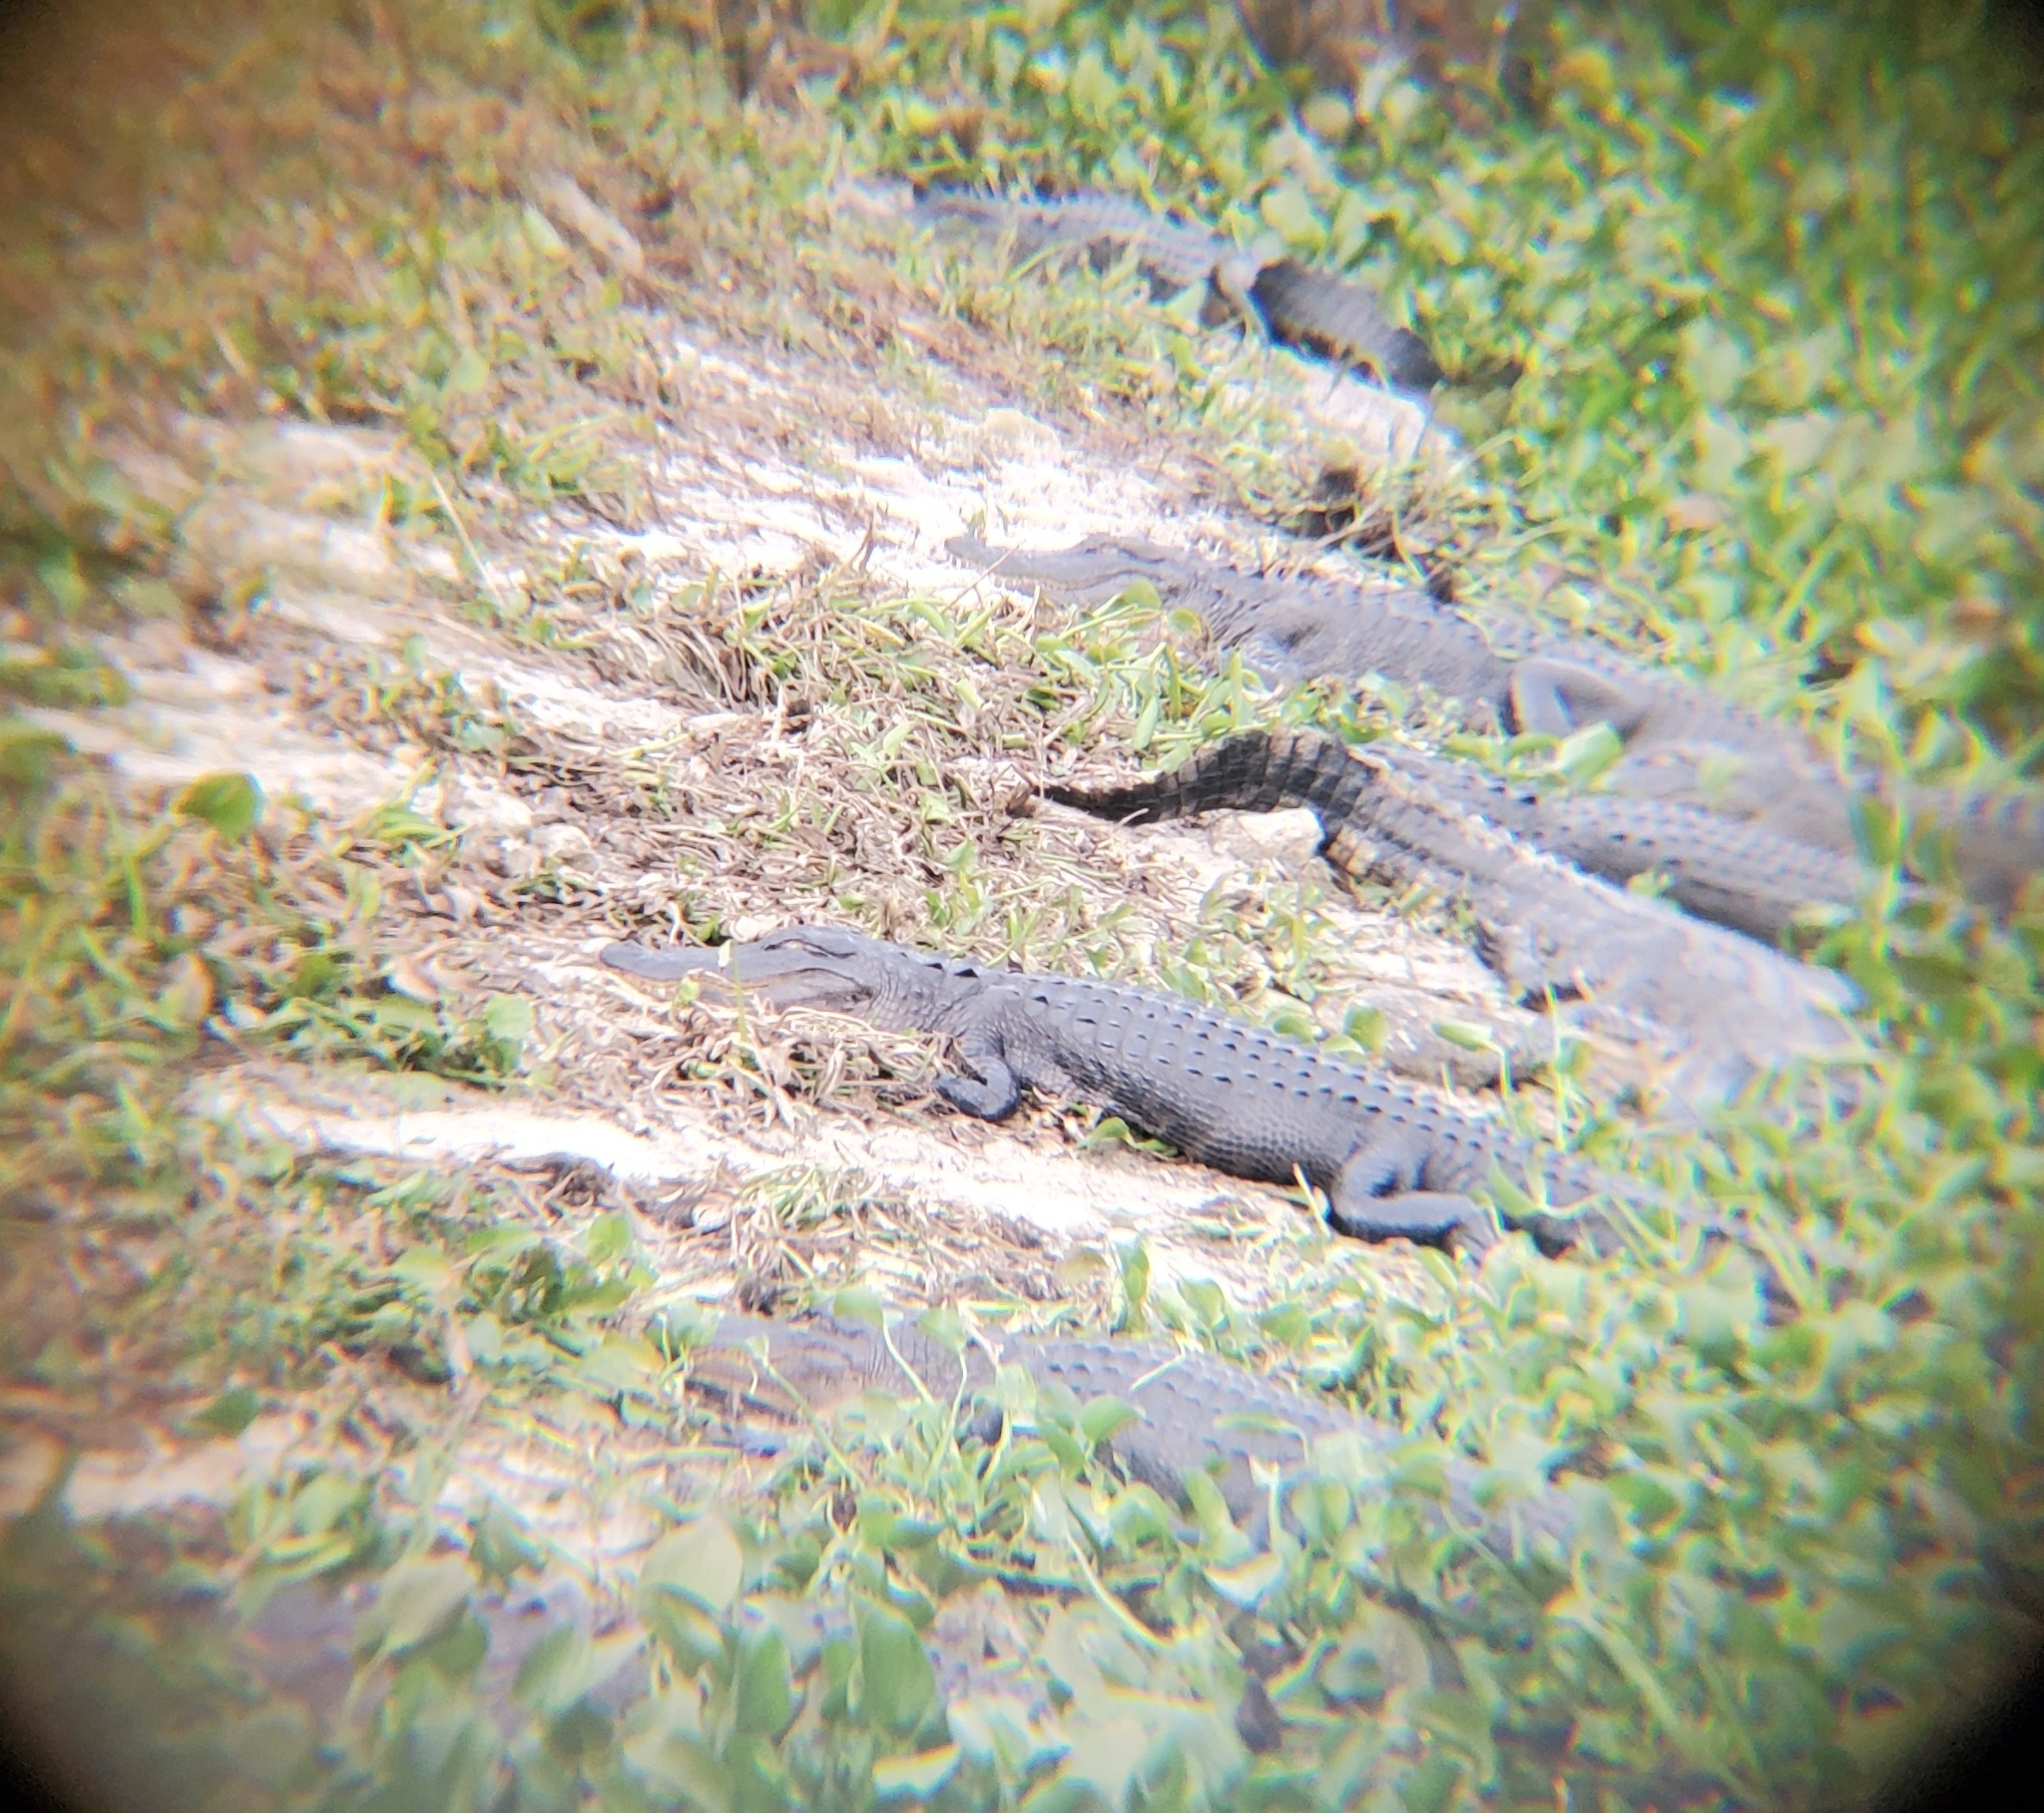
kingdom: Animalia
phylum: Chordata
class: Crocodylia
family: Alligatoridae
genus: Alligator
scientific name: Alligator mississippiensis
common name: American alligator
